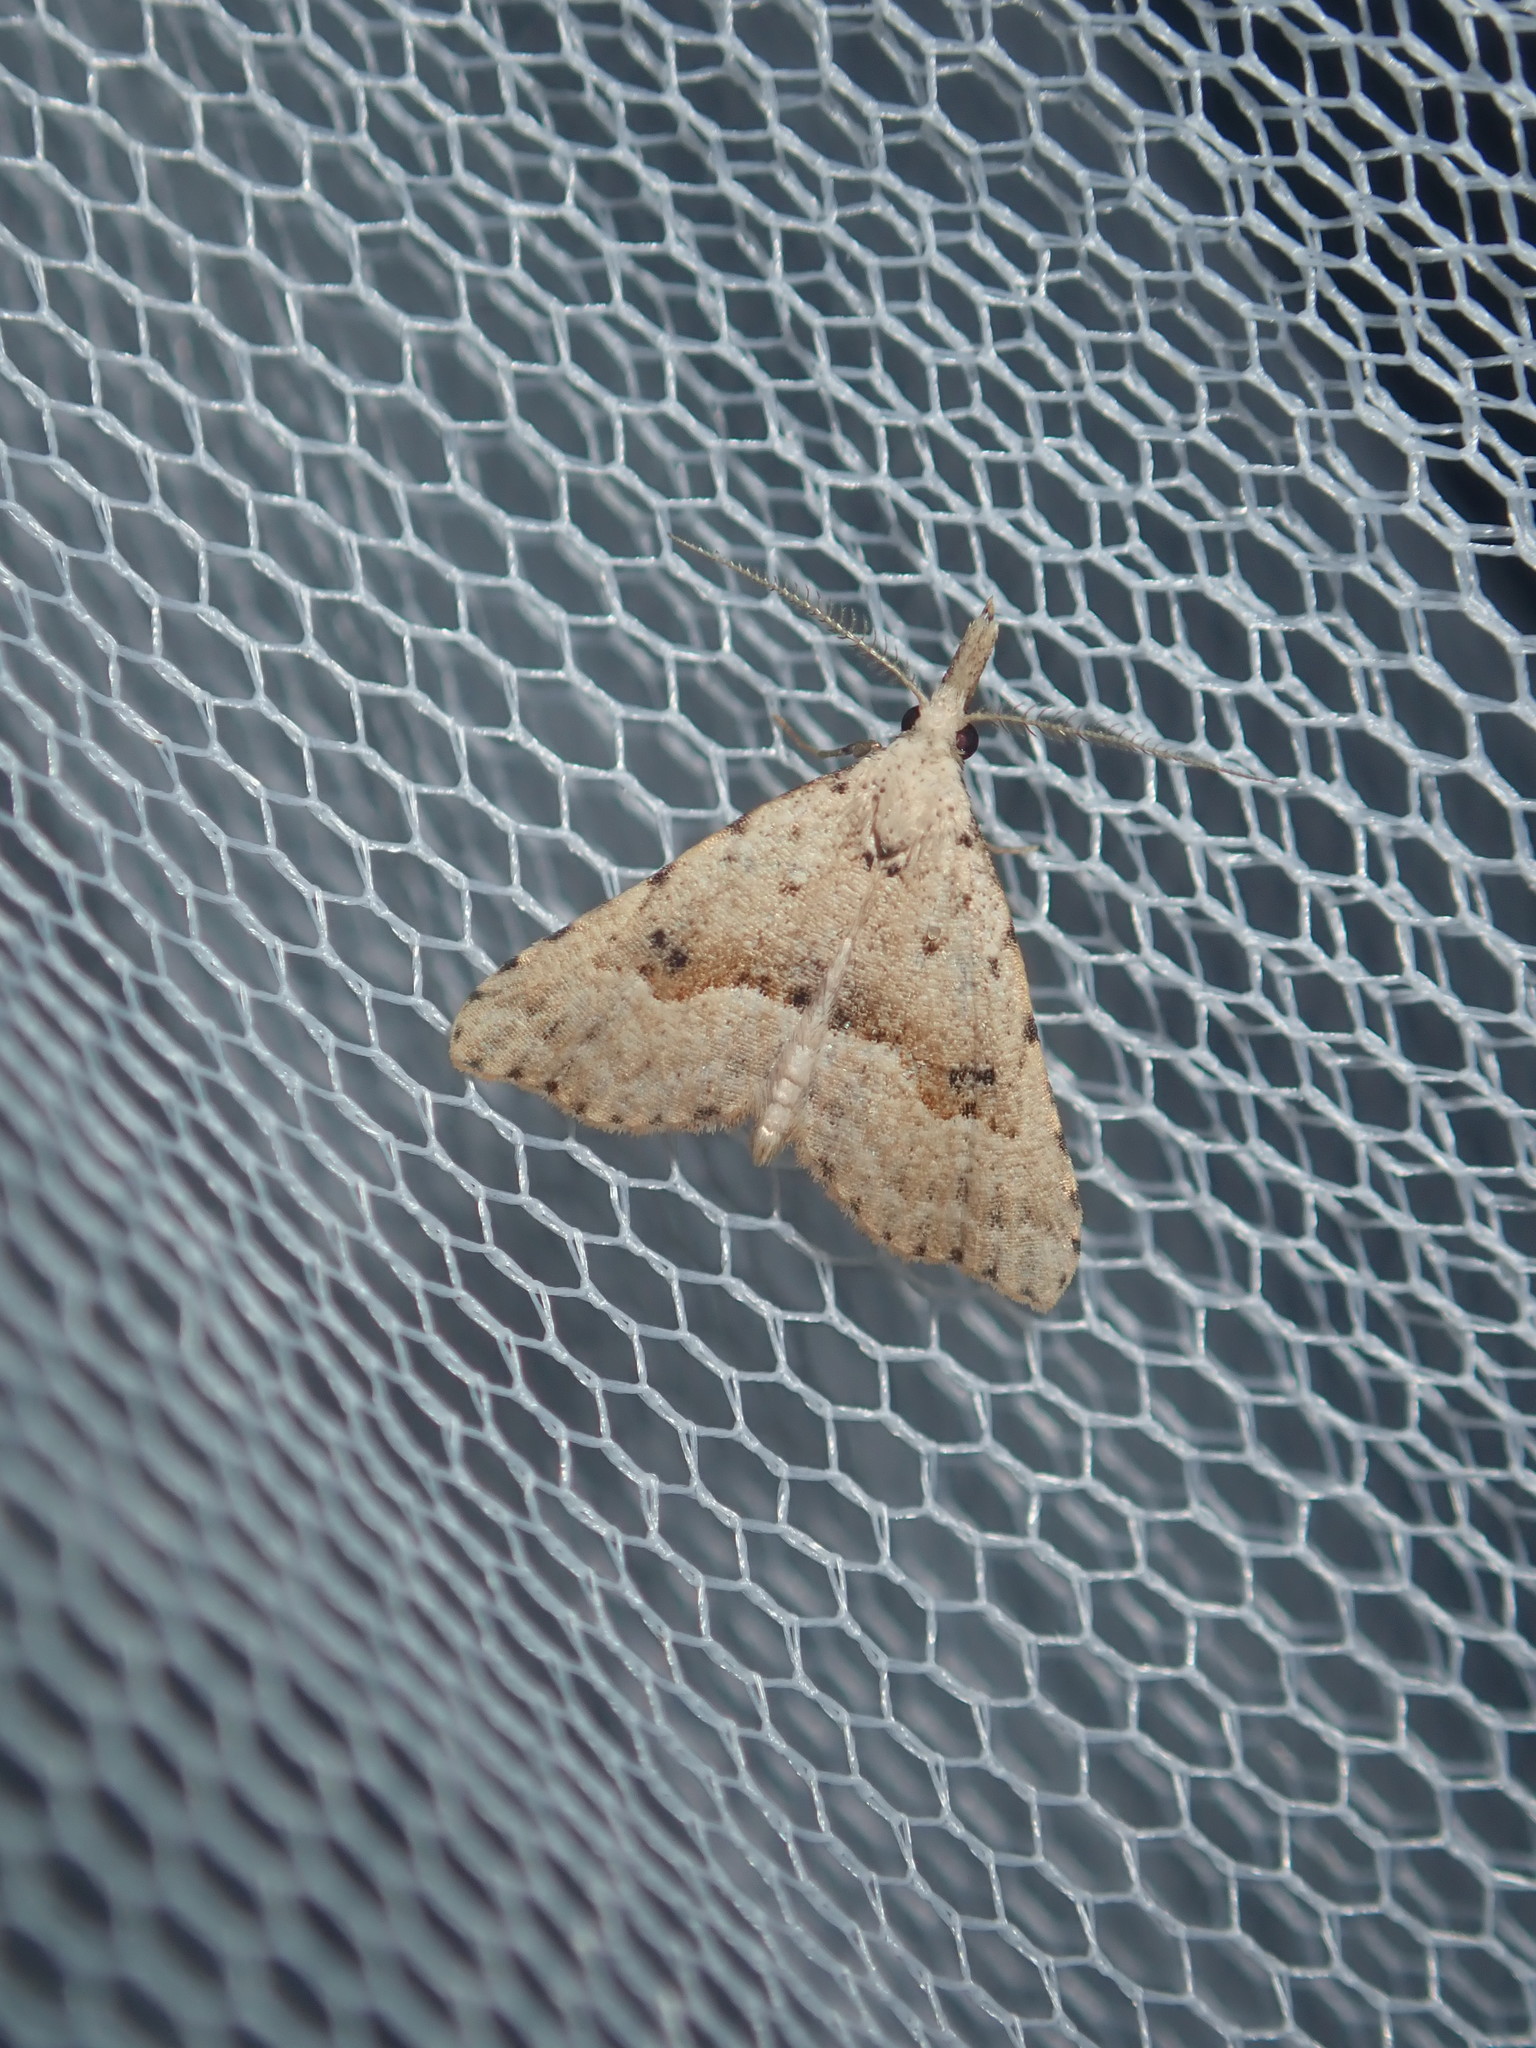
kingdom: Animalia
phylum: Arthropoda
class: Insecta
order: Lepidoptera
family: Erebidae
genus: Trigonistis
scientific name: Trigonistis asthenopa
